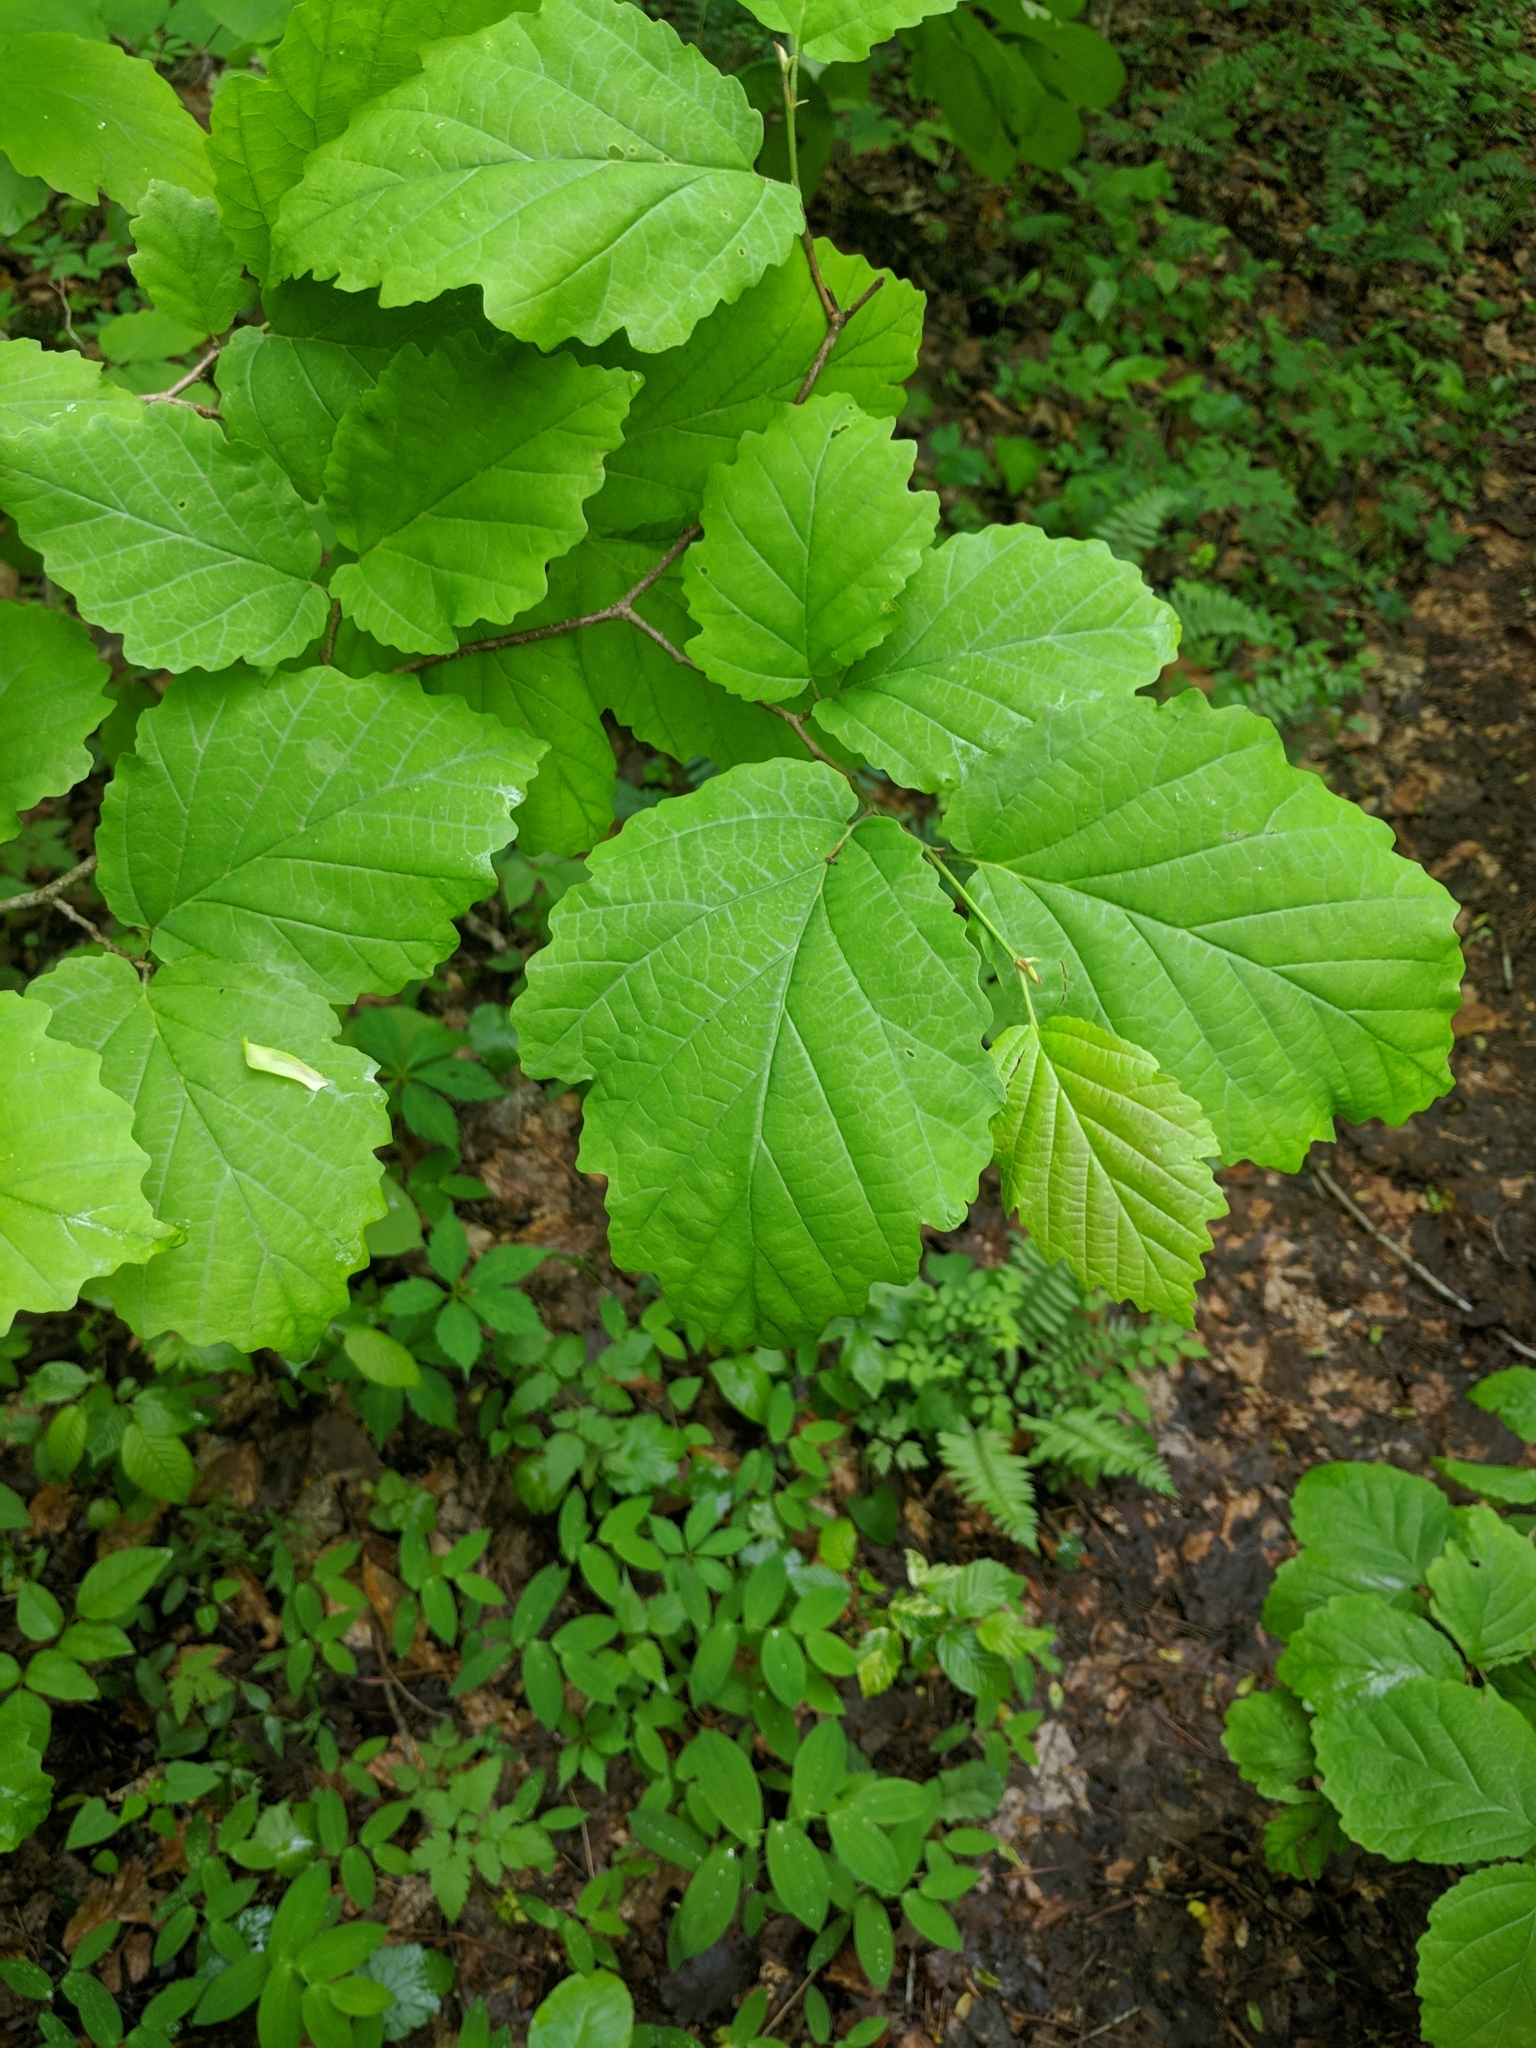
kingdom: Plantae
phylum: Tracheophyta
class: Magnoliopsida
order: Saxifragales
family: Hamamelidaceae
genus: Hamamelis
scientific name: Hamamelis virginiana
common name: Witch-hazel
